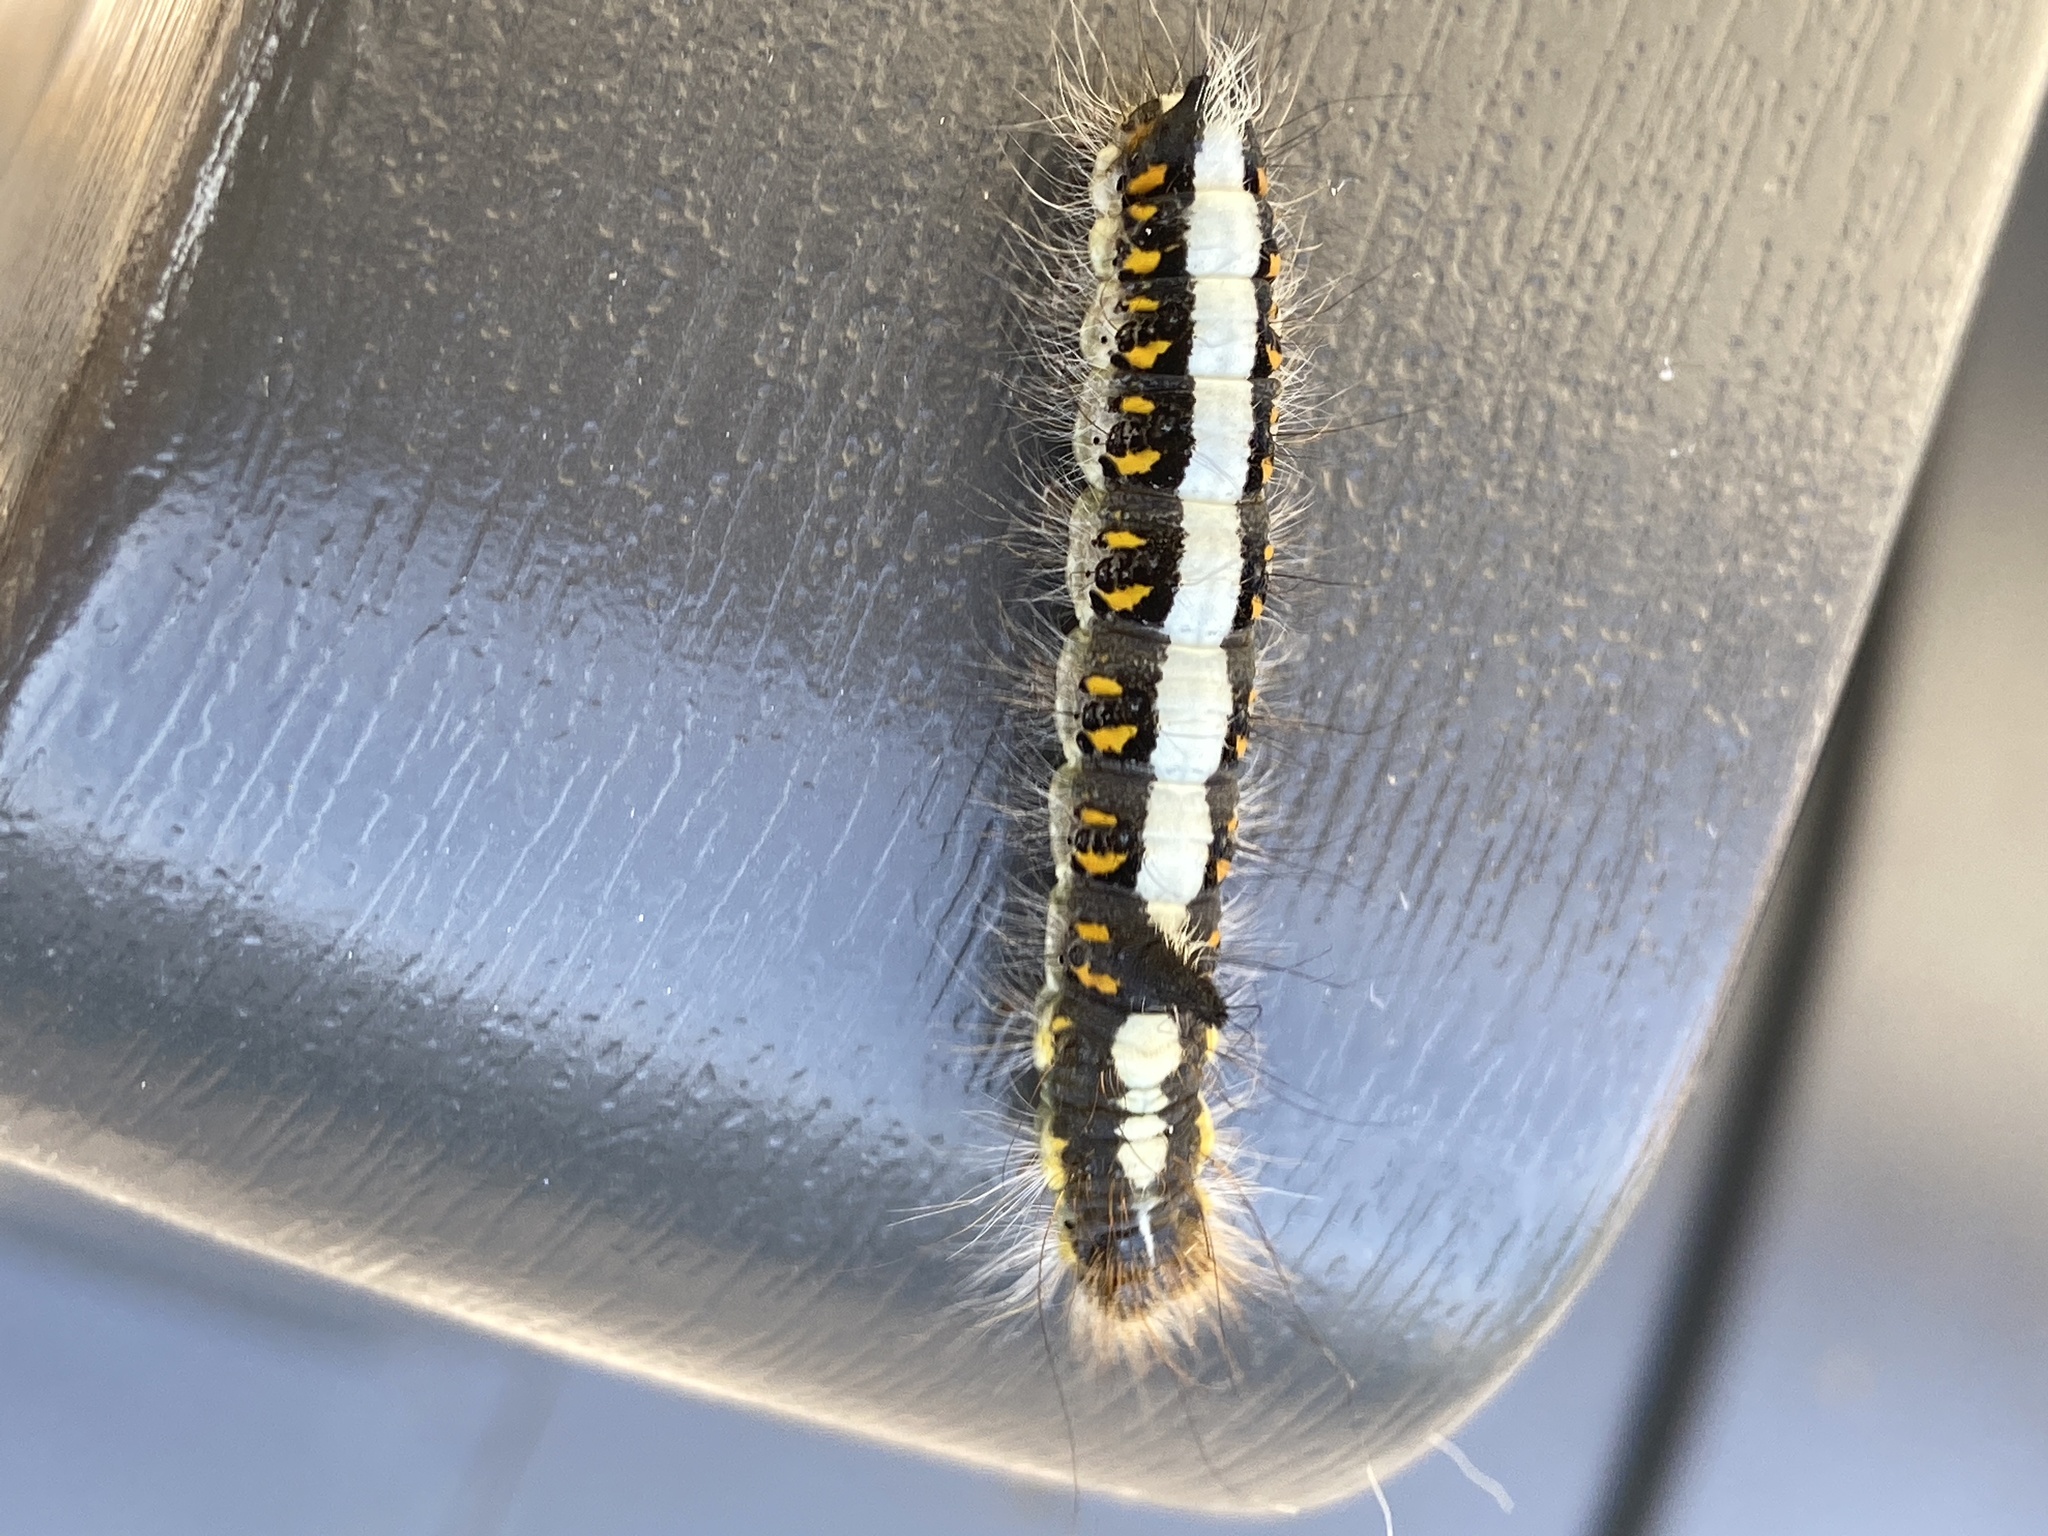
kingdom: Animalia
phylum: Arthropoda
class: Insecta
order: Lepidoptera
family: Noctuidae
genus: Acronicta
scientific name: Acronicta psi
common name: Grey dagger
